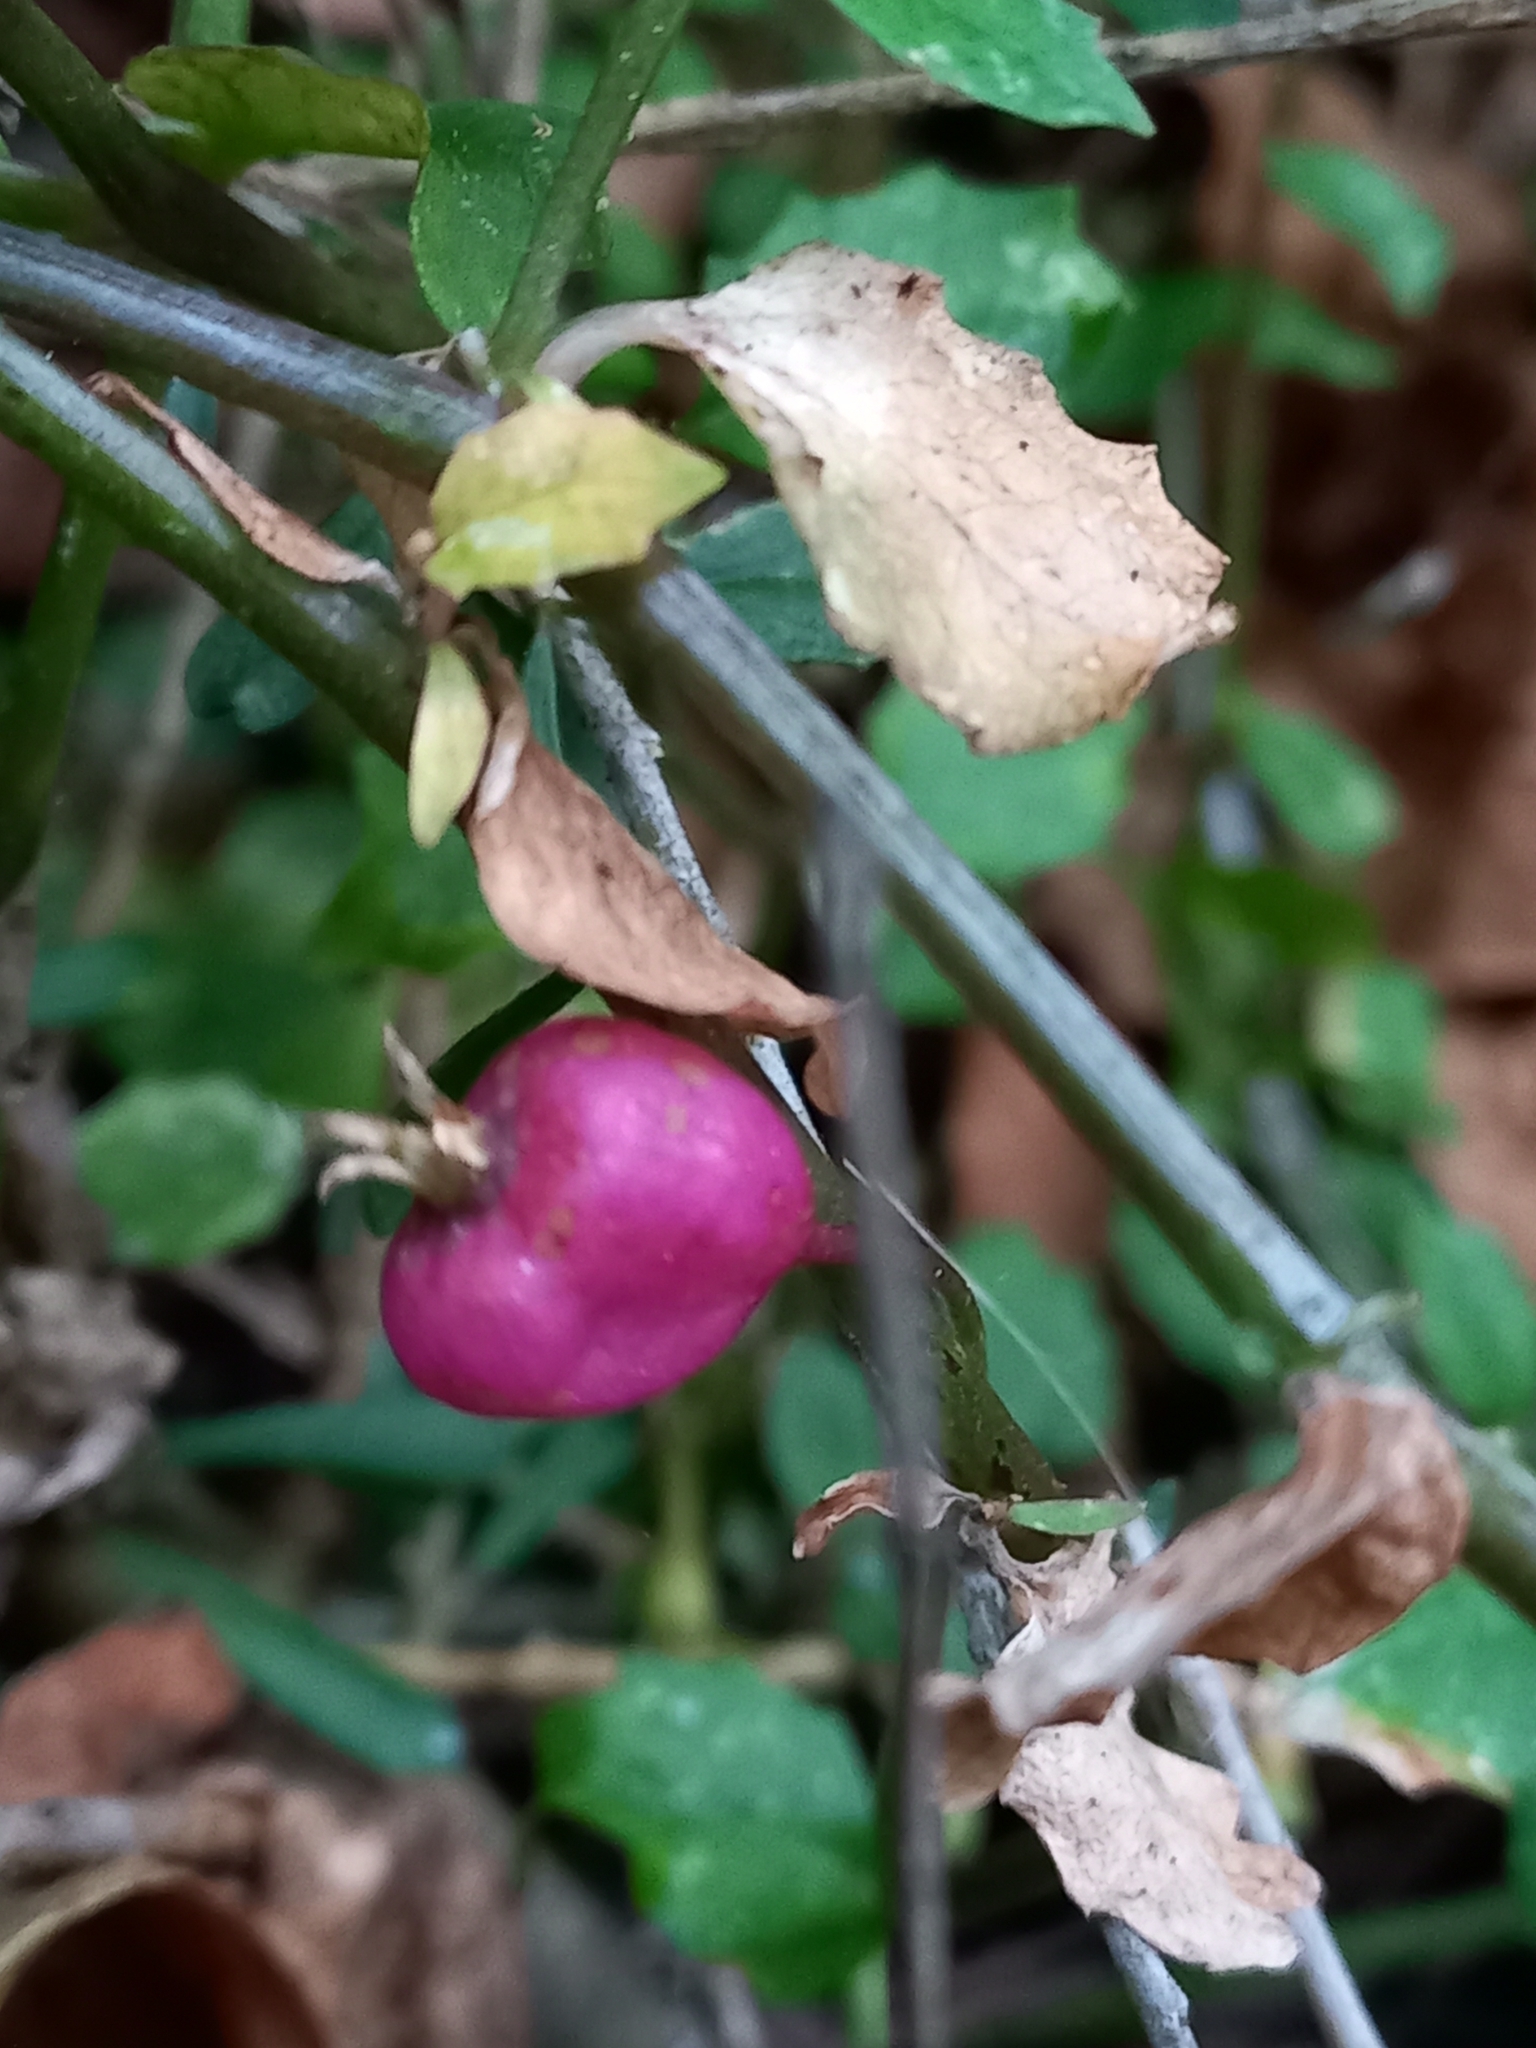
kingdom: Plantae
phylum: Tracheophyta
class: Magnoliopsida
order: Asterales
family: Campanulaceae
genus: Lobelia
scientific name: Lobelia angulata
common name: Lawn lobelia
